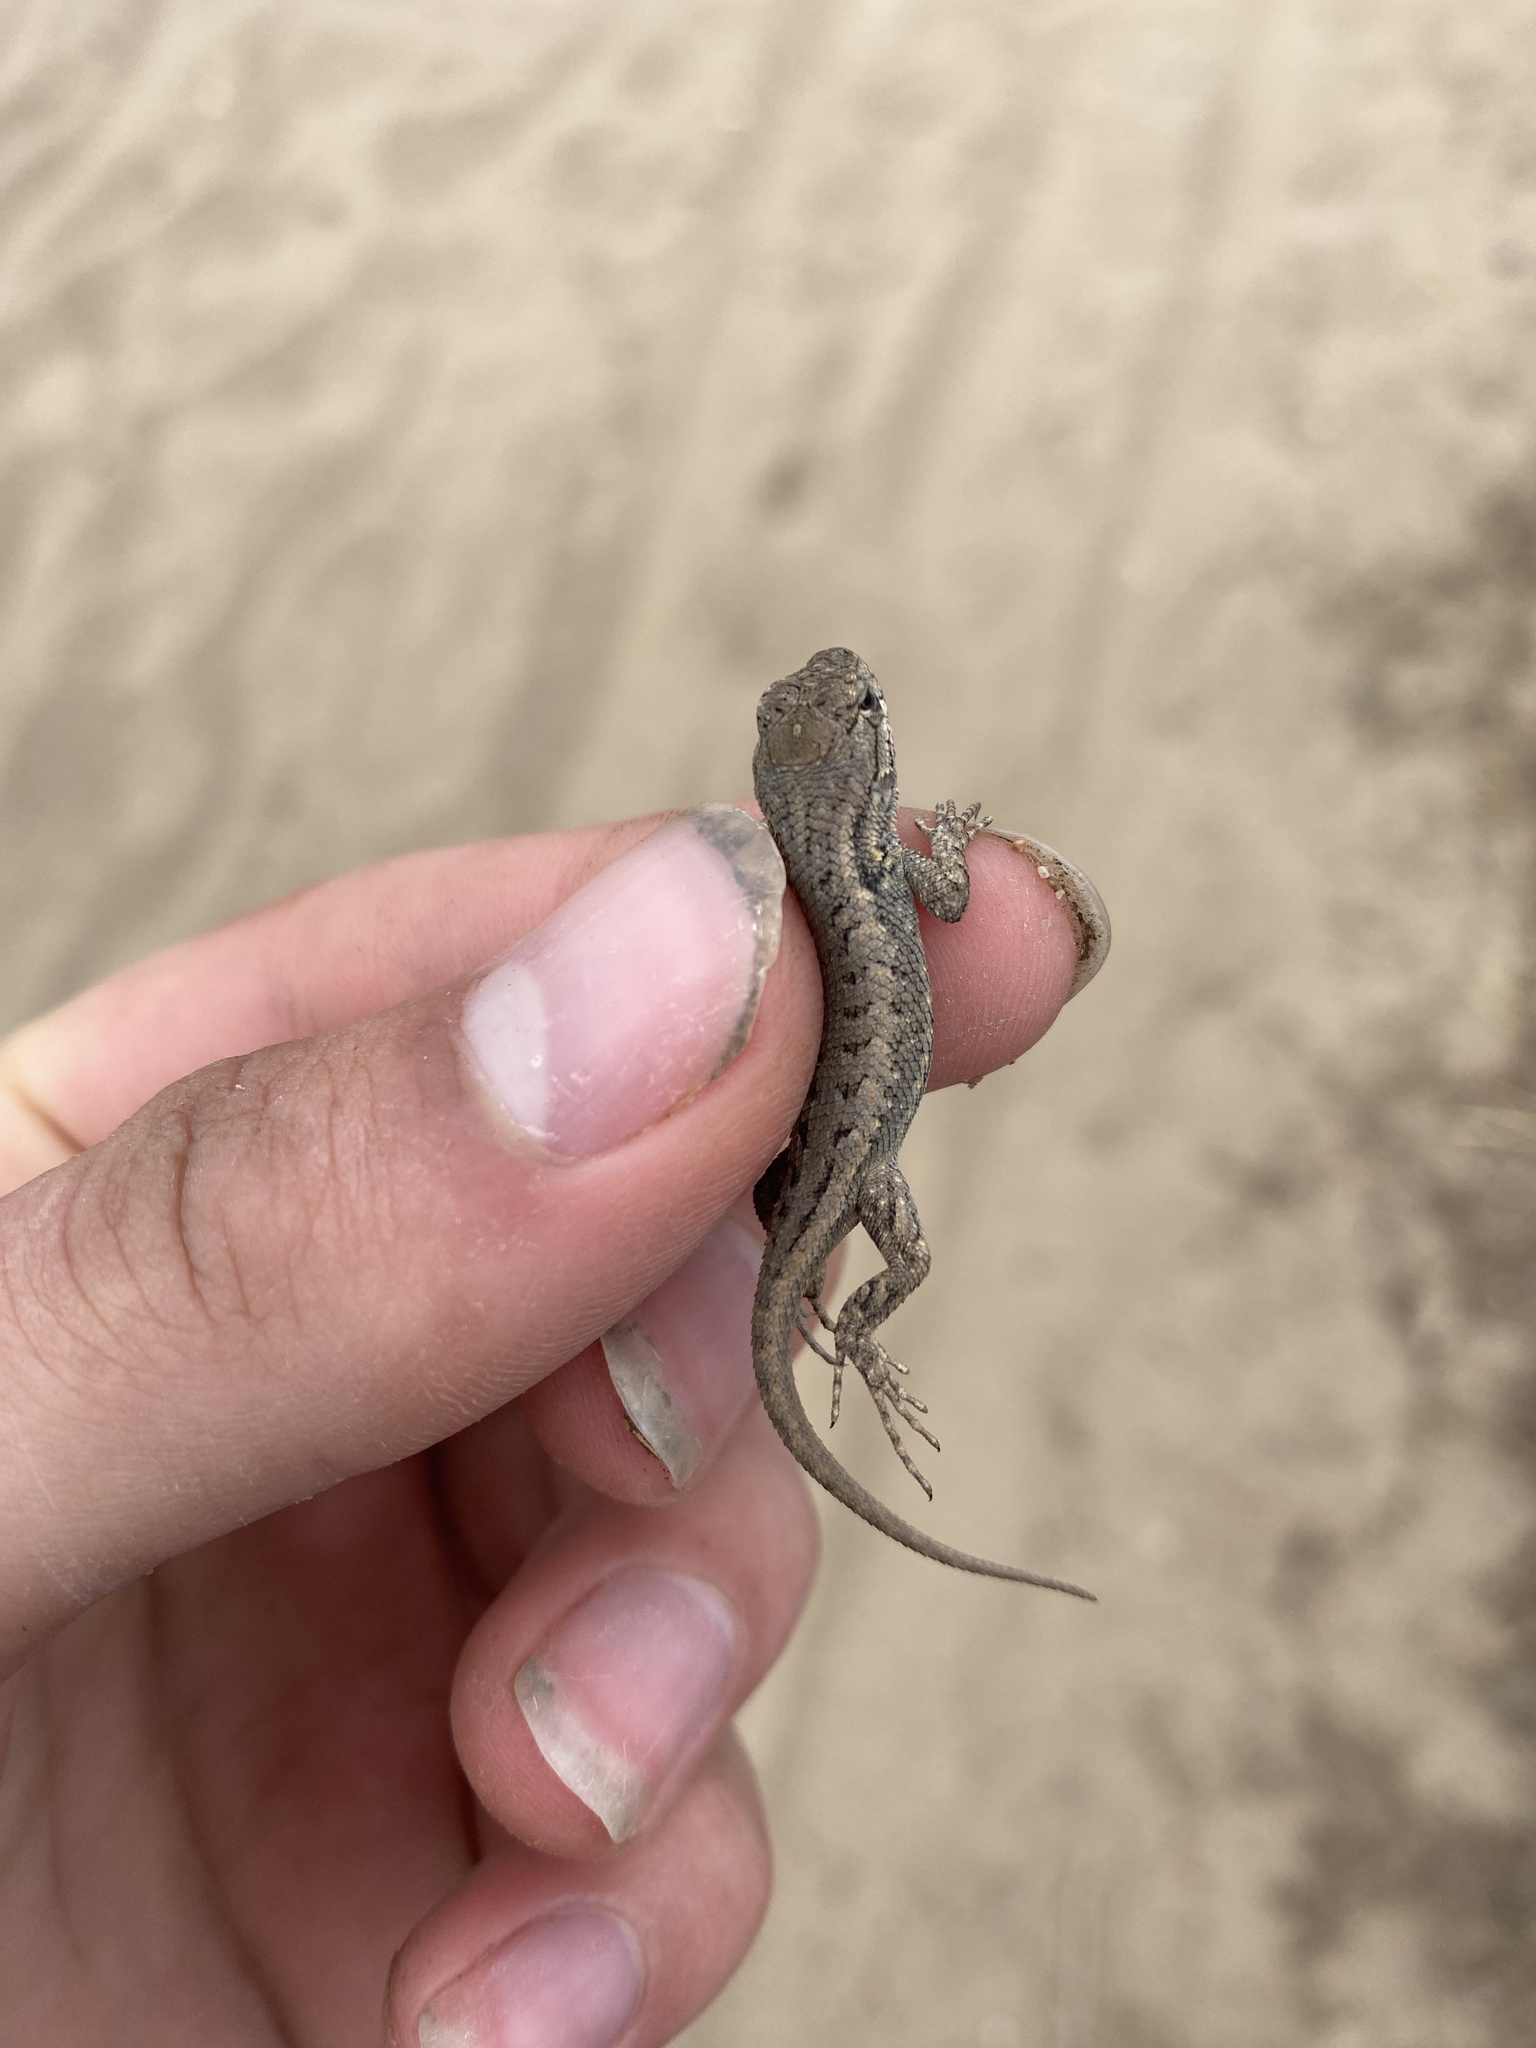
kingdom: Animalia
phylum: Chordata
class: Squamata
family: Phrynosomatidae
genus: Sceloporus
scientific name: Sceloporus occidentalis
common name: Western fence lizard
